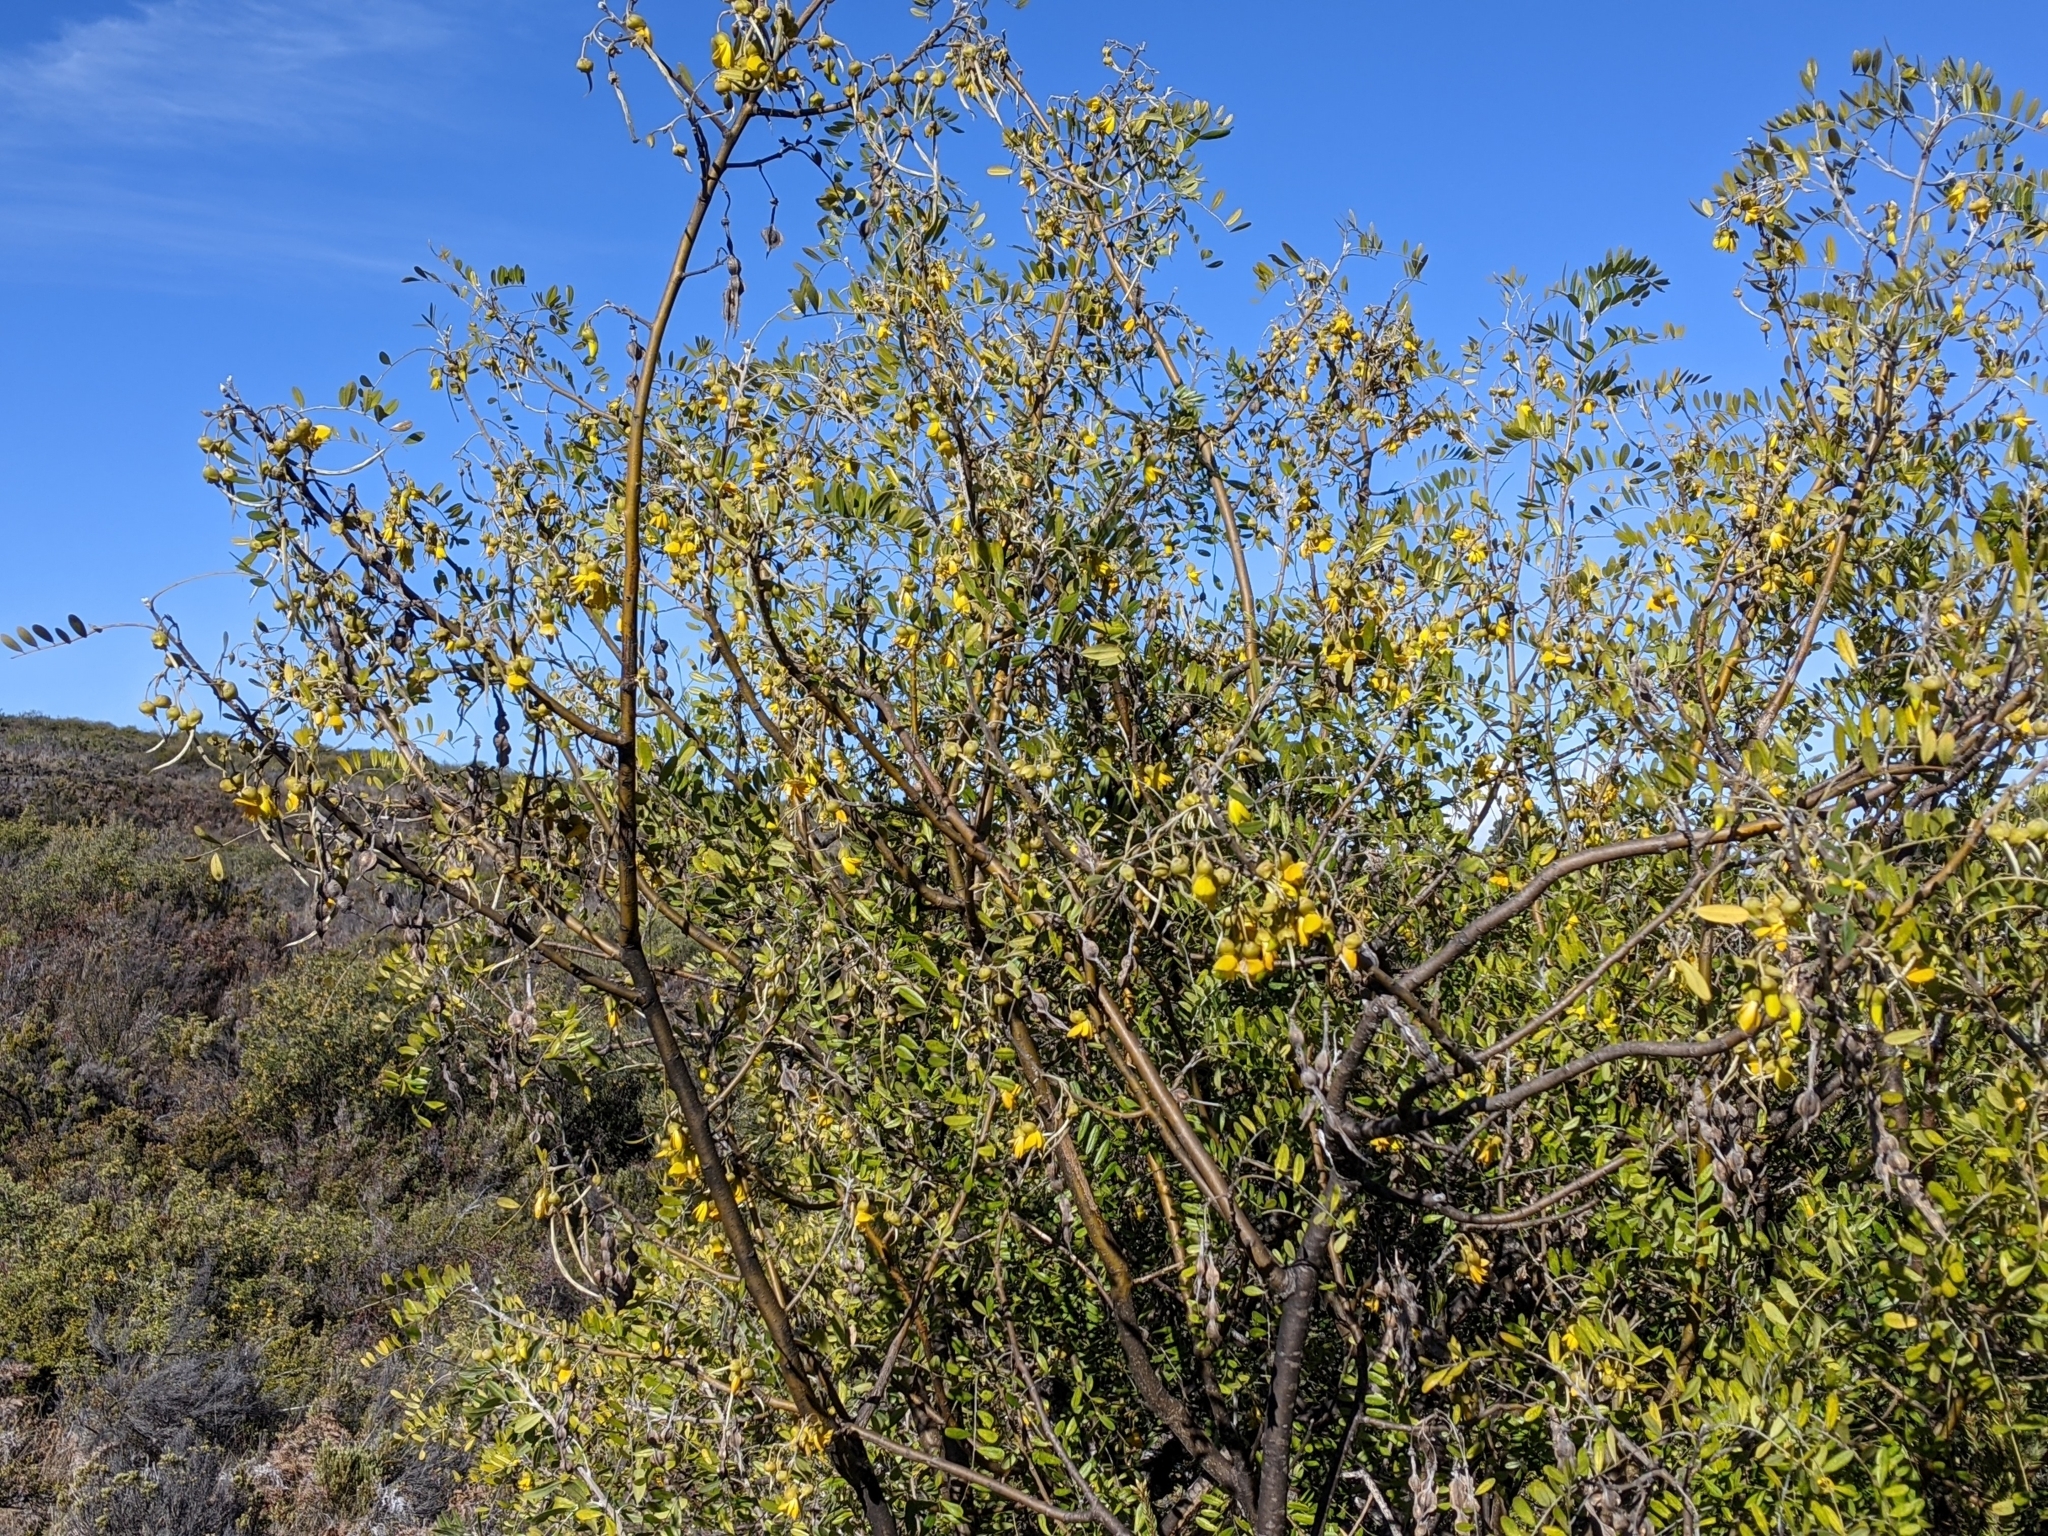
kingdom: Plantae
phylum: Tracheophyta
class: Magnoliopsida
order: Fabales
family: Fabaceae
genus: Sophora
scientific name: Sophora chrysophylla
